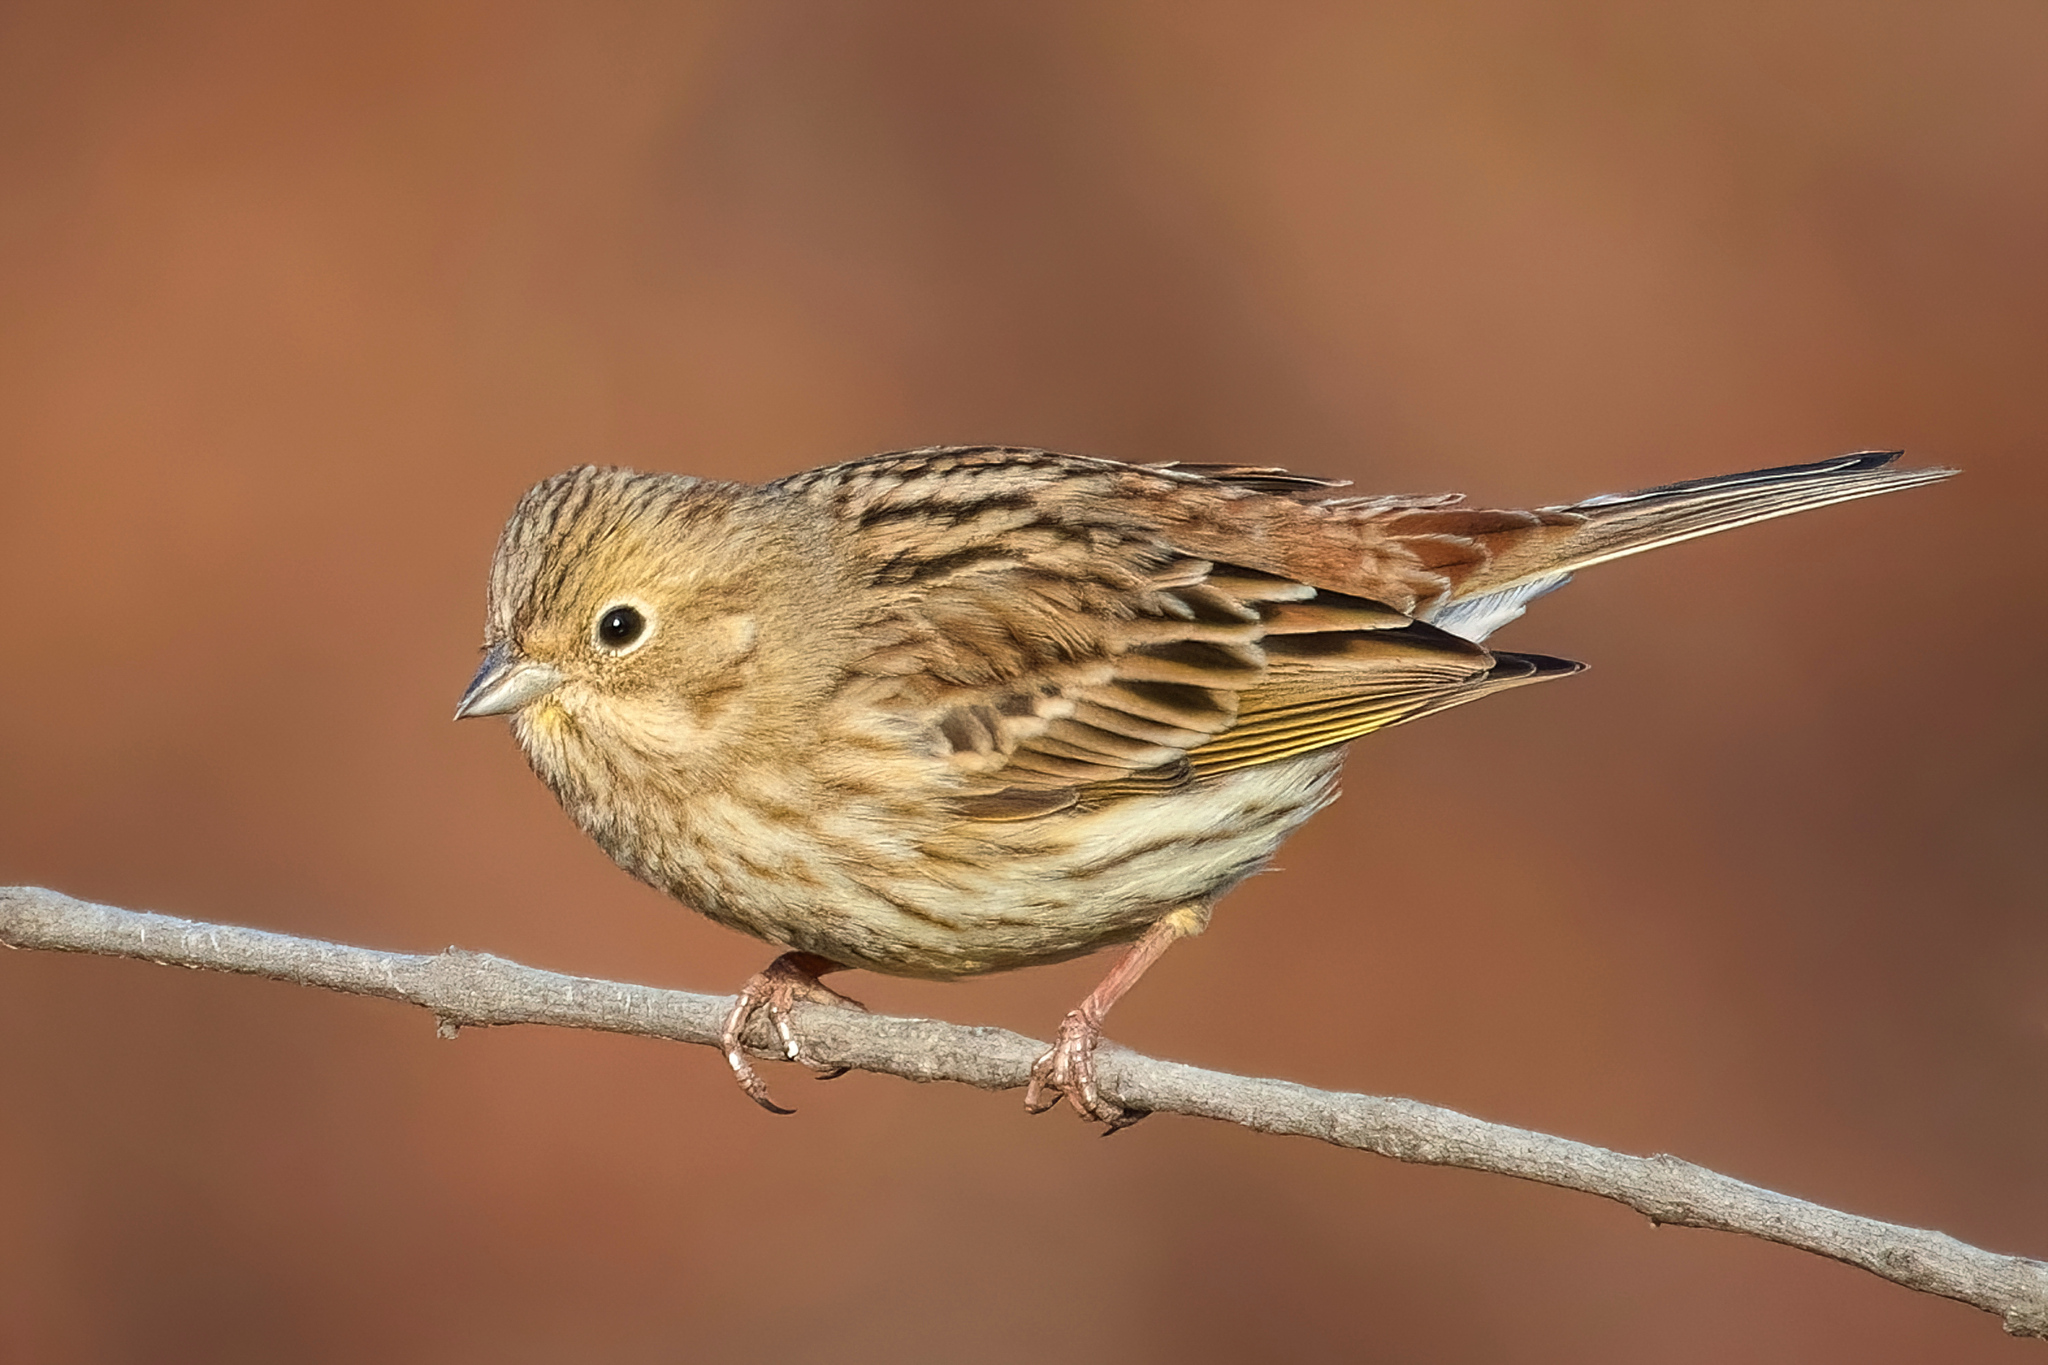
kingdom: Animalia
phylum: Chordata
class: Aves
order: Passeriformes
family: Emberizidae
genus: Emberiza
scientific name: Emberiza citrinella
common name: Yellowhammer
